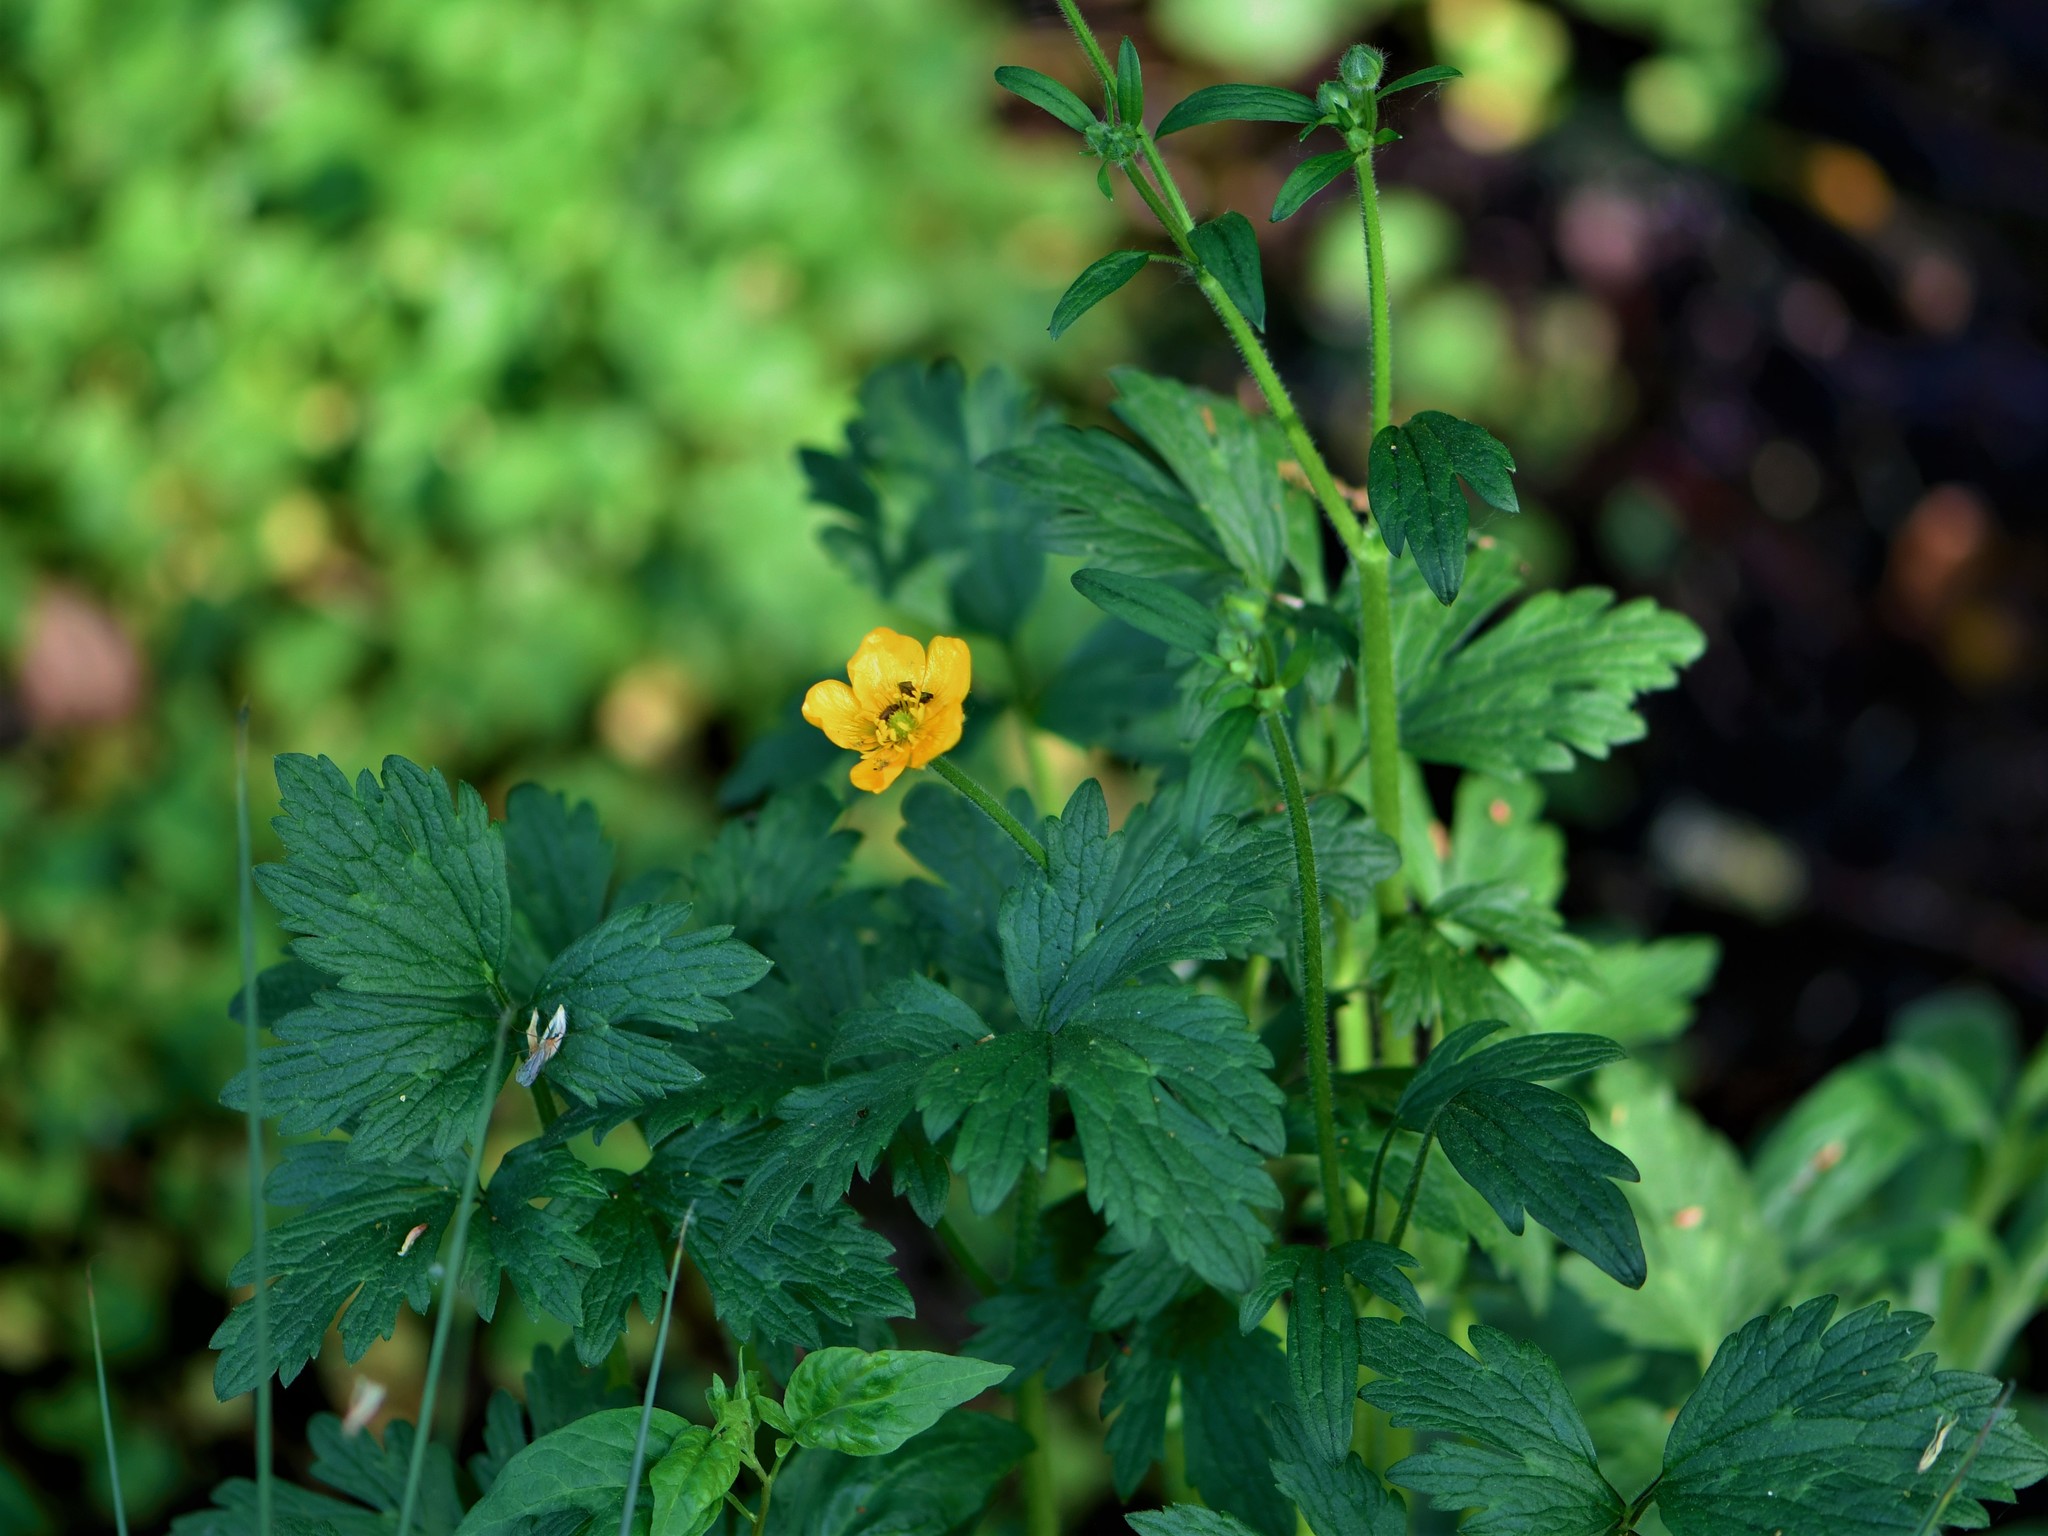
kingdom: Plantae
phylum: Tracheophyta
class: Magnoliopsida
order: Ranunculales
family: Ranunculaceae
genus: Ranunculus
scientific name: Ranunculus repens
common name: Creeping buttercup
